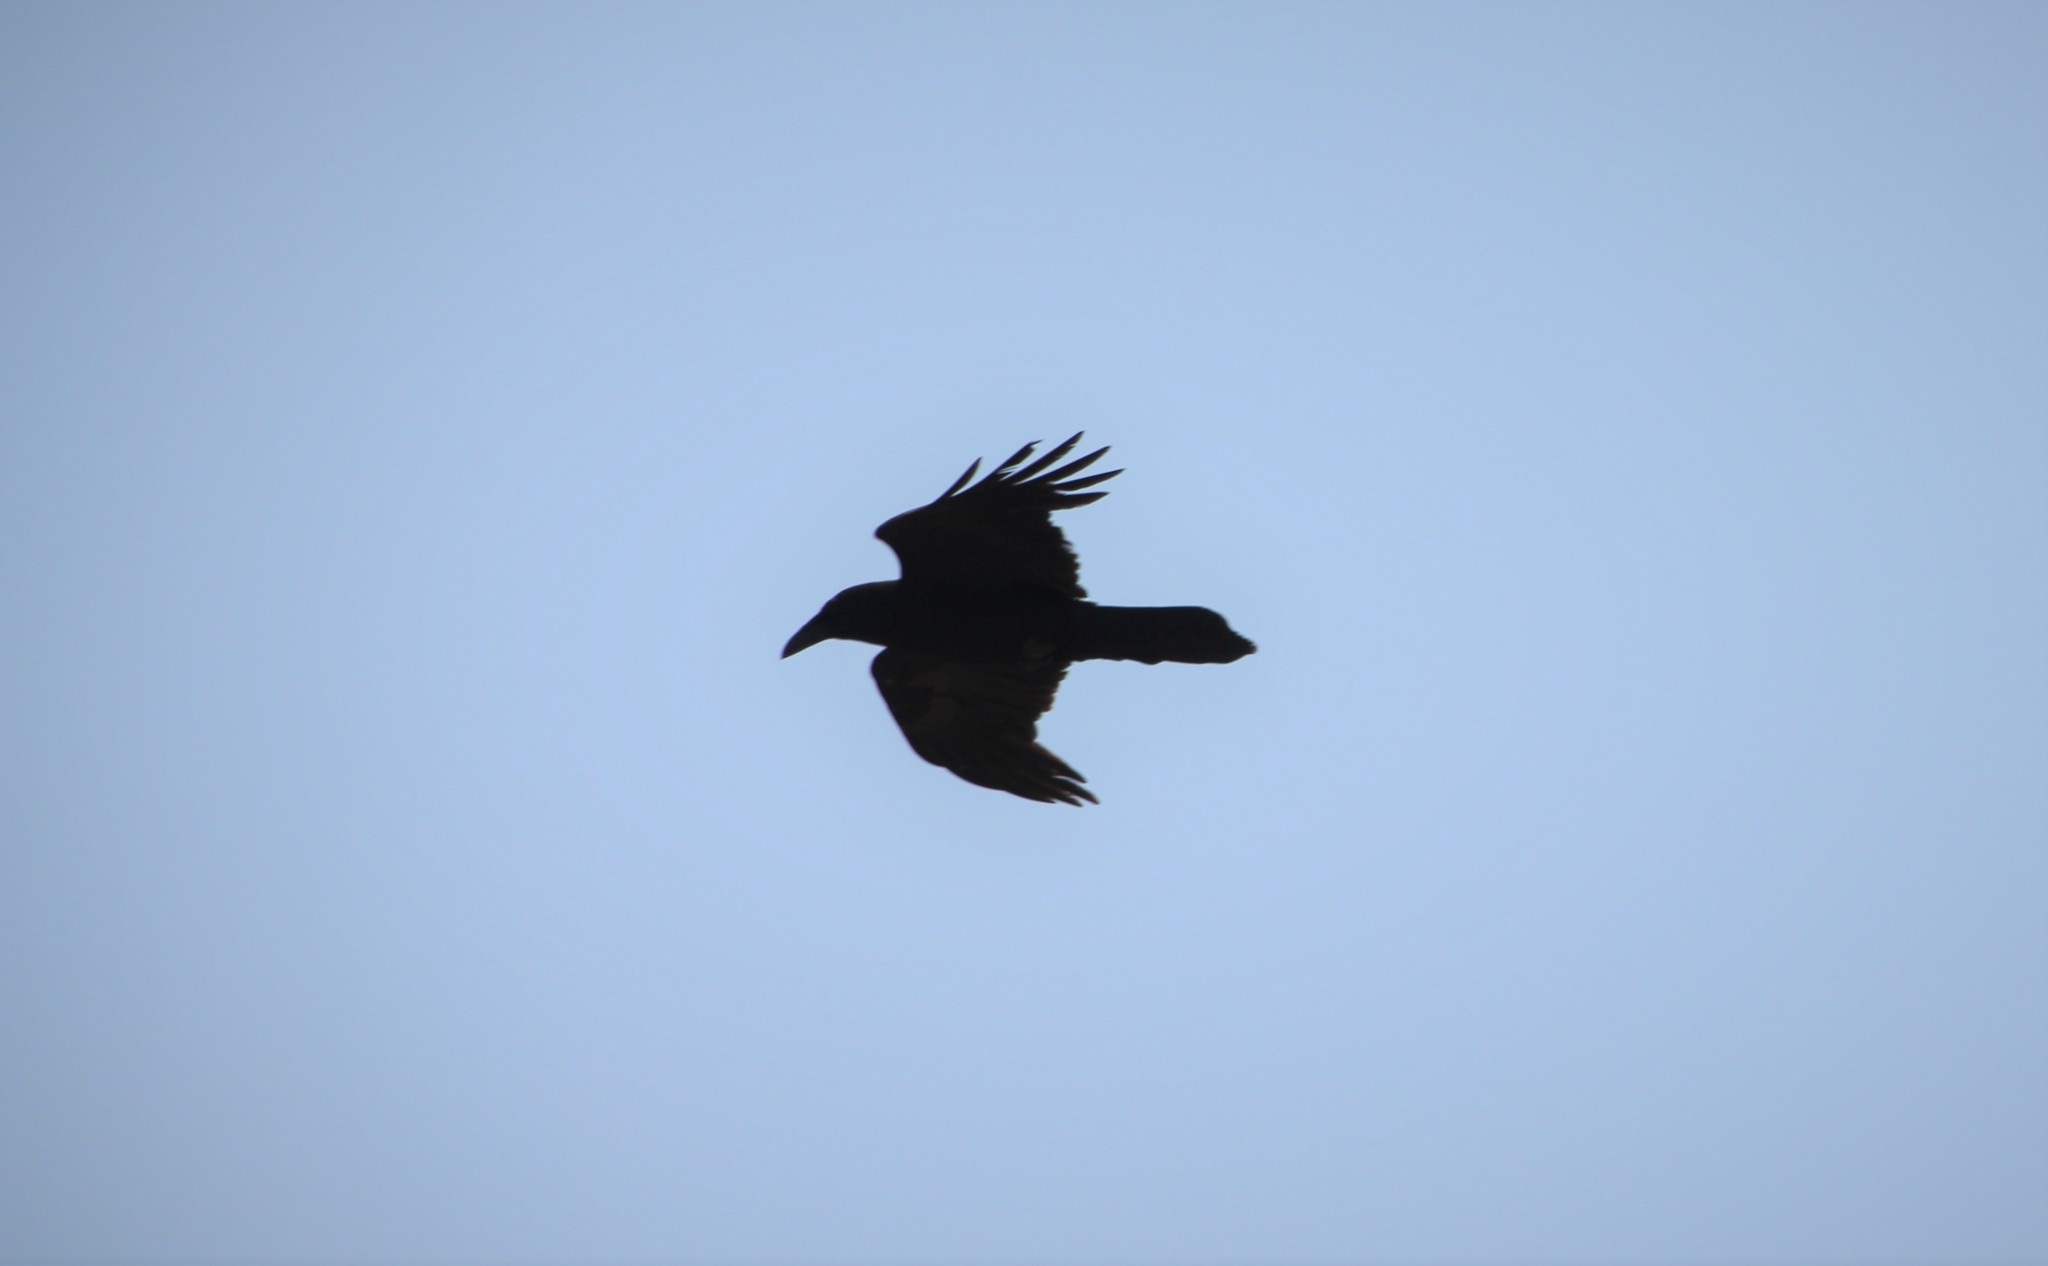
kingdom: Animalia
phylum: Chordata
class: Aves
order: Passeriformes
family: Corvidae
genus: Corvus
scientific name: Corvus corax
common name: Common raven
